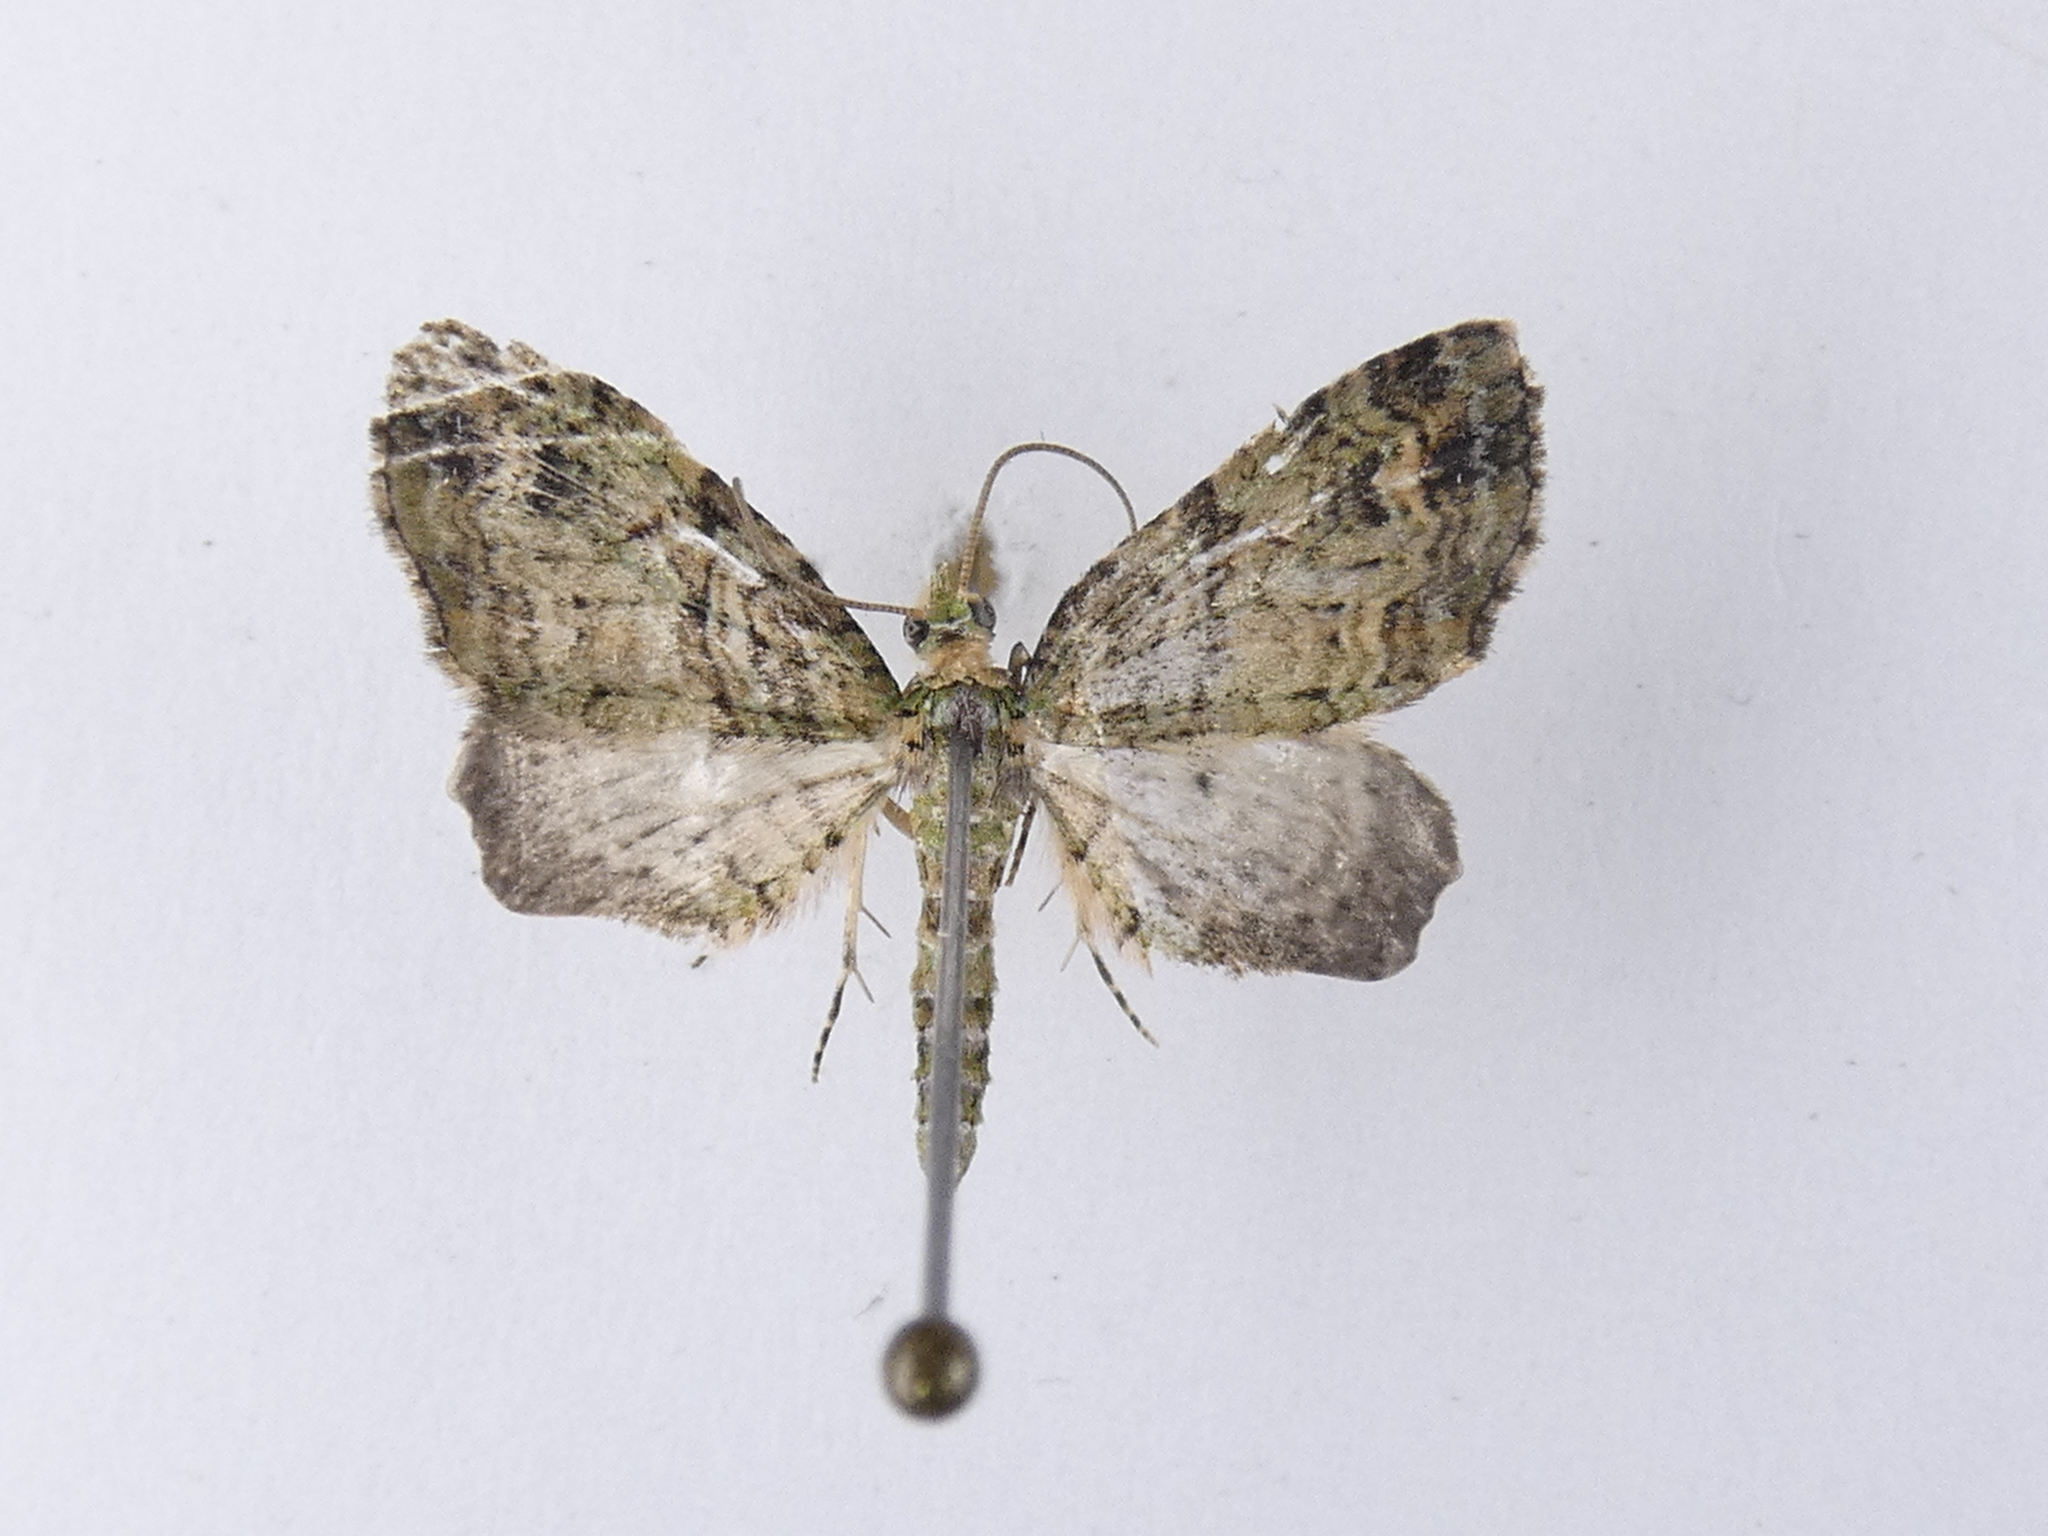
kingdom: Animalia
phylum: Arthropoda
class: Insecta
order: Lepidoptera
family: Geometridae
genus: Idaea
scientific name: Idaea mutanda
